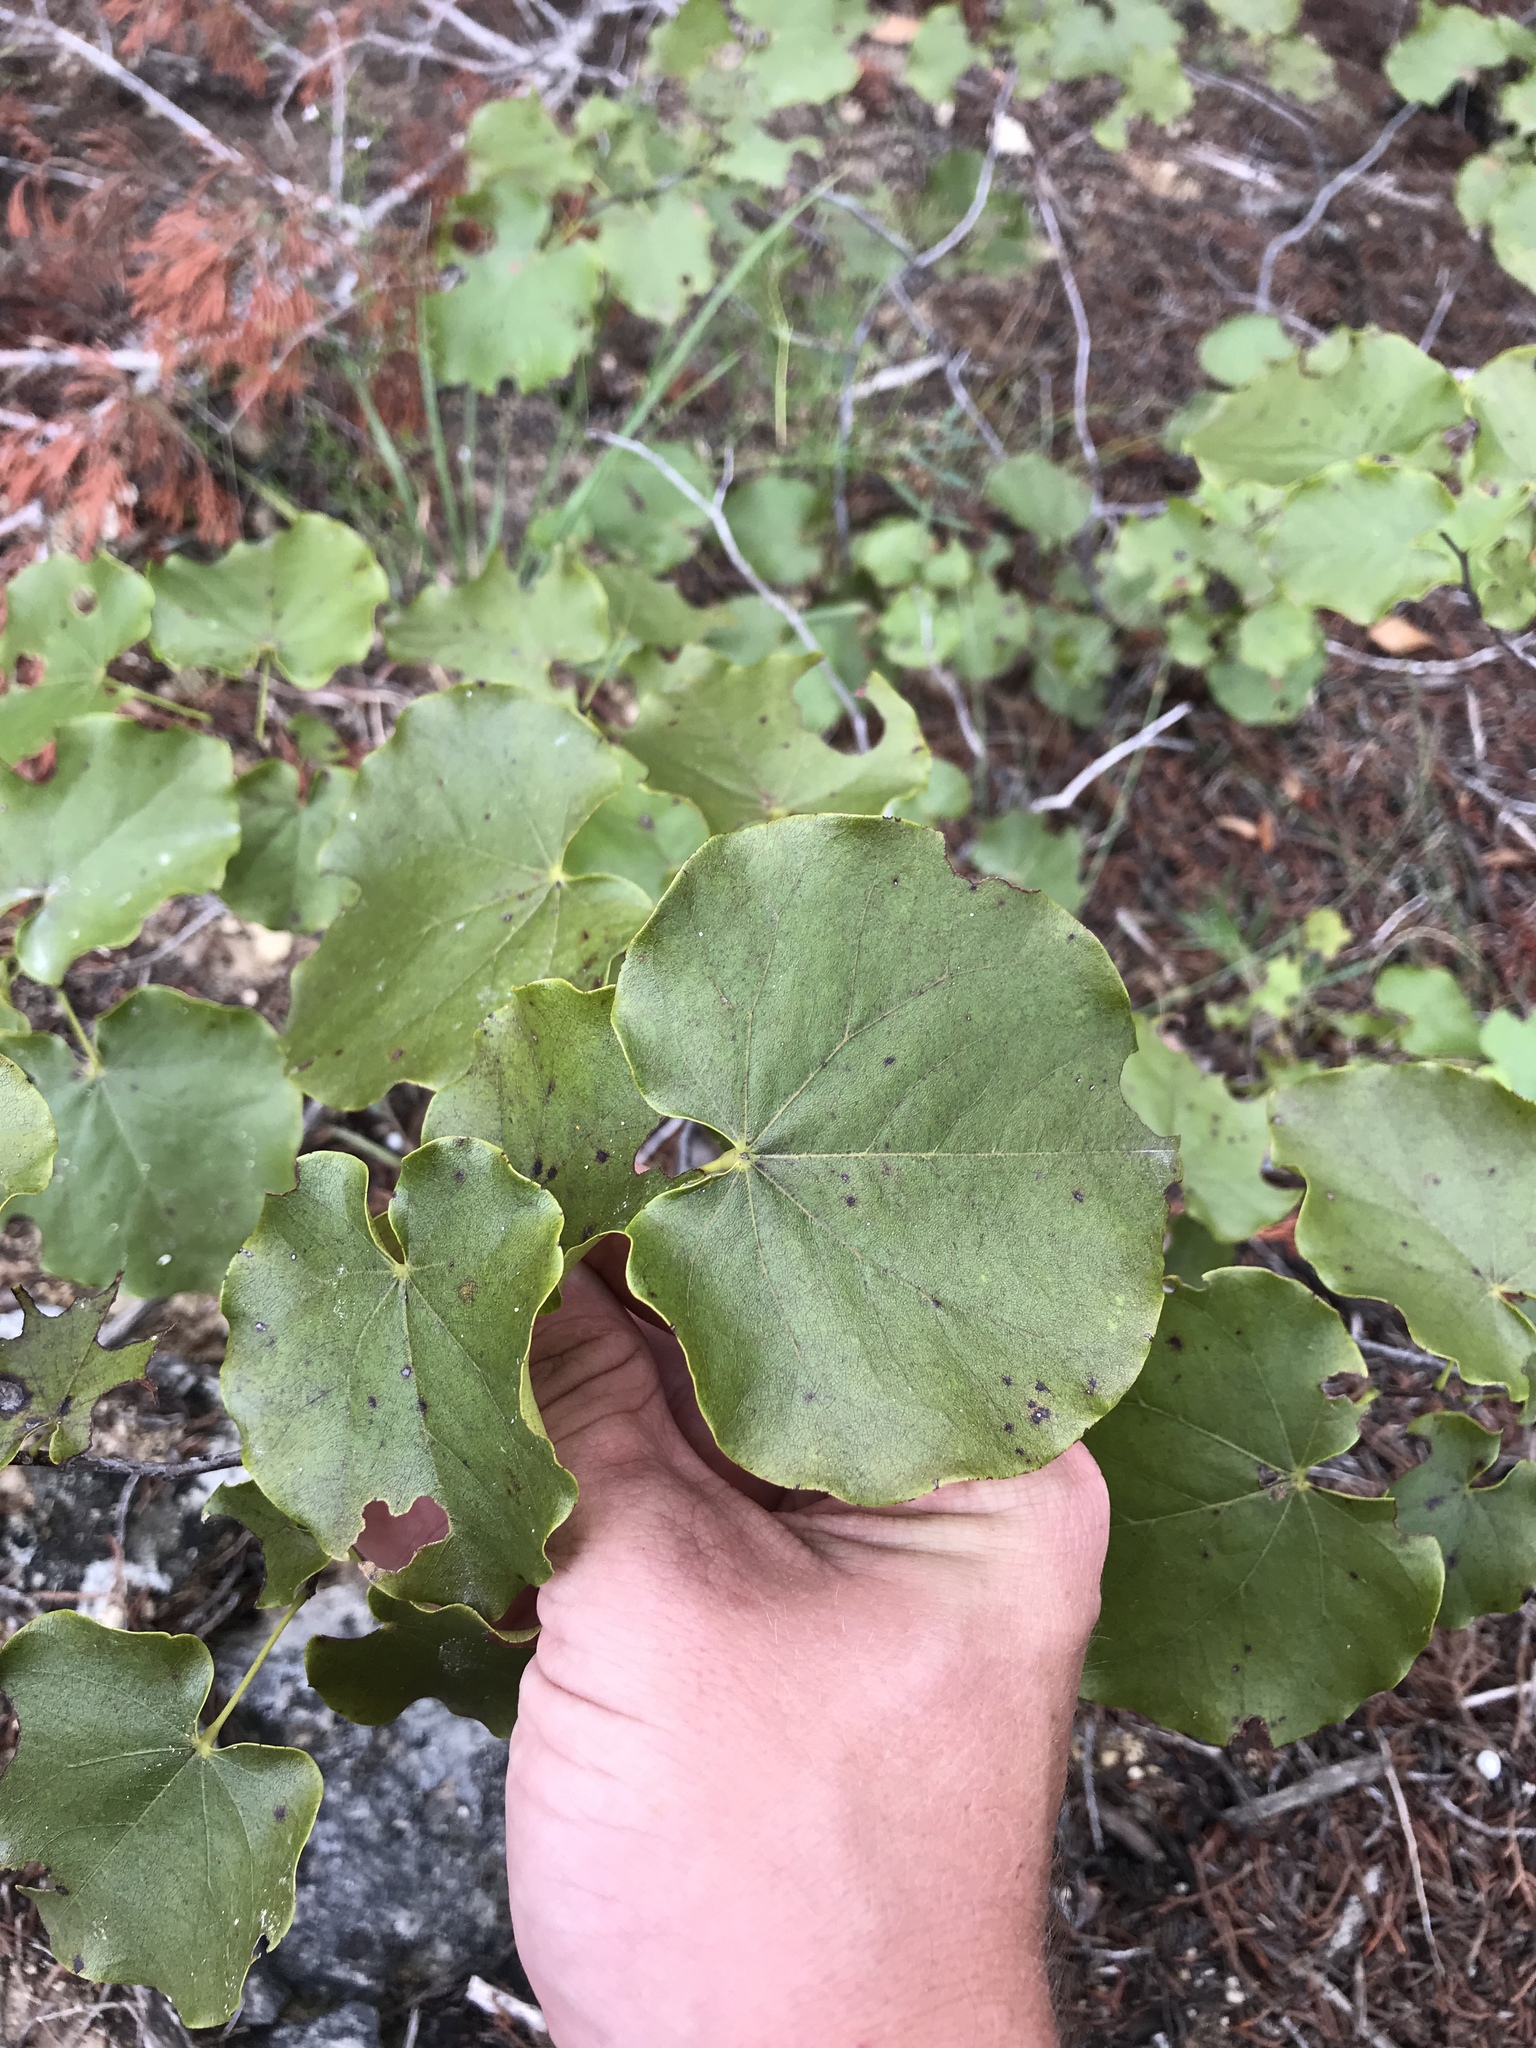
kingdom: Plantae
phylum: Tracheophyta
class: Magnoliopsida
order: Fabales
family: Fabaceae
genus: Cercis
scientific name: Cercis canadensis
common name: Eastern redbud
